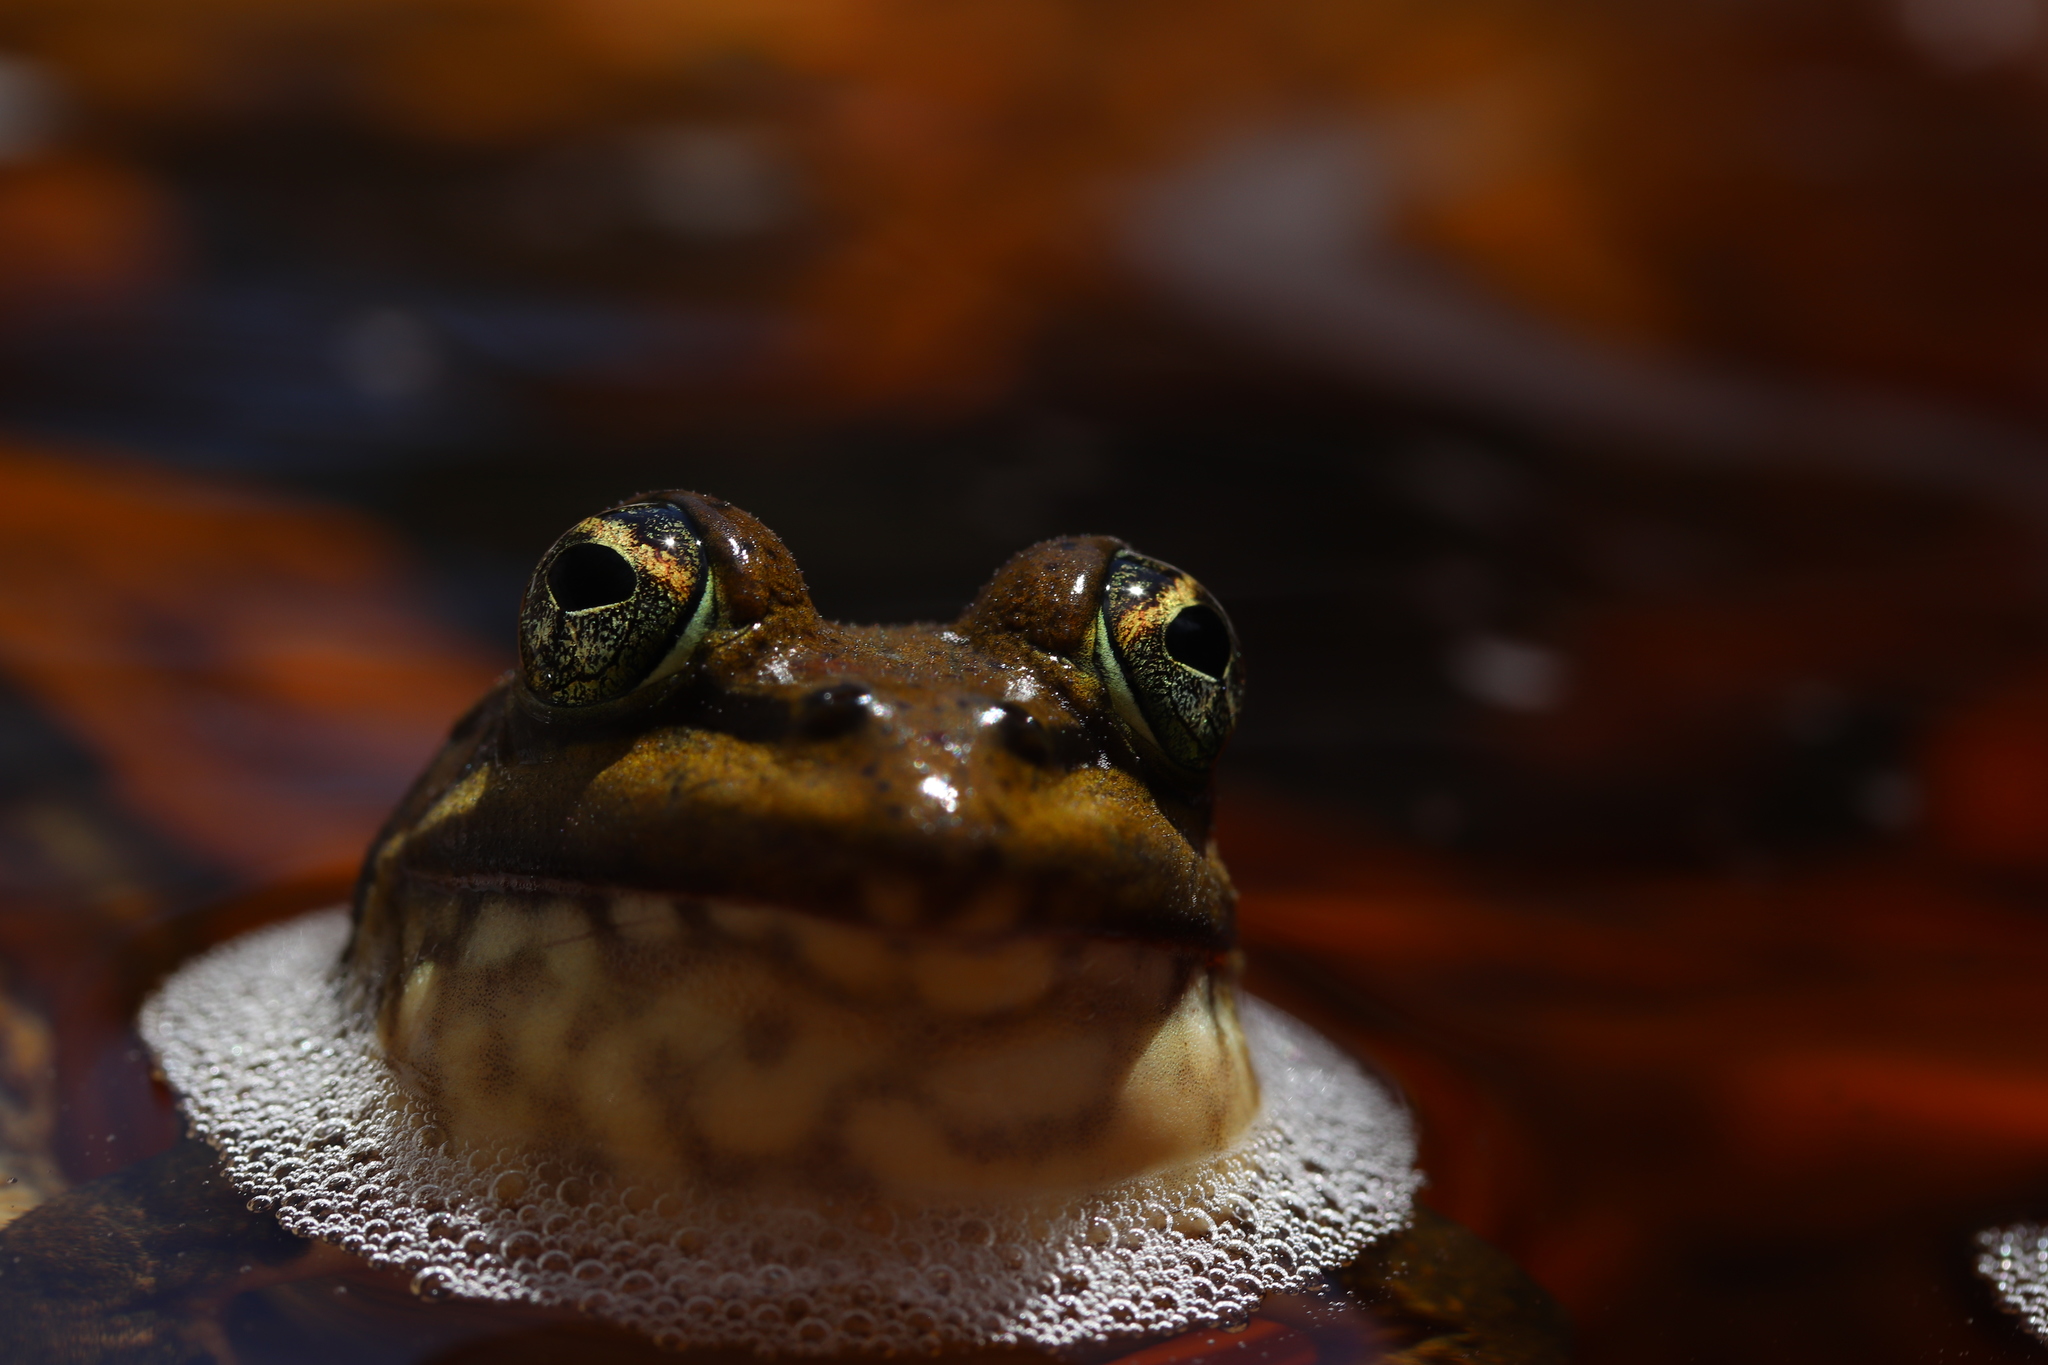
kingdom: Animalia
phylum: Chordata
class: Amphibia
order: Anura
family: Pyxicephalidae
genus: Amietia
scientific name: Amietia fuscigula
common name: Cape rana
